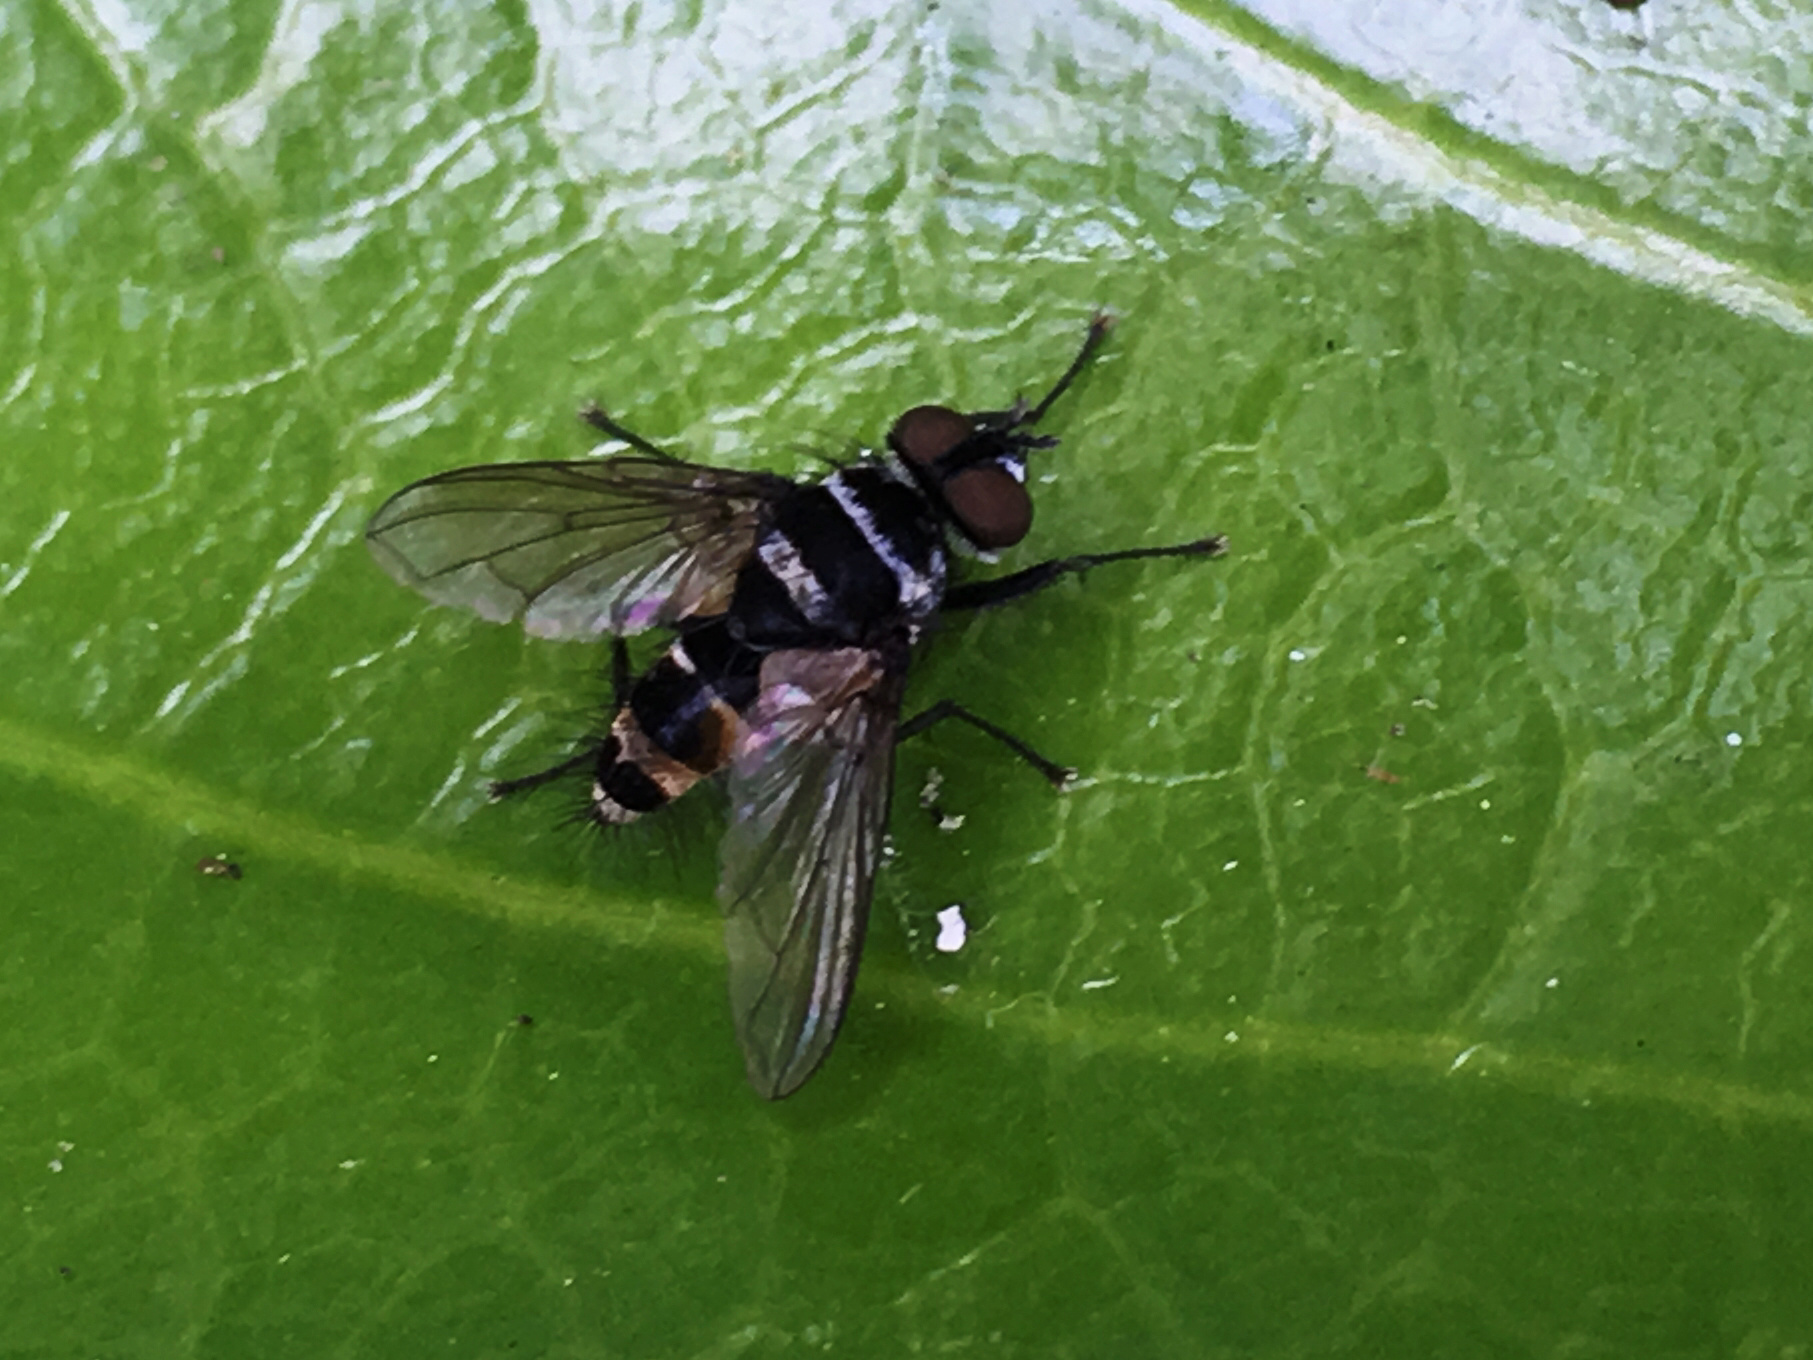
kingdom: Animalia
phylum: Arthropoda
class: Insecta
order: Diptera
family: Tachinidae
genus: Trigonospila
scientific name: Trigonospila brevifacies
